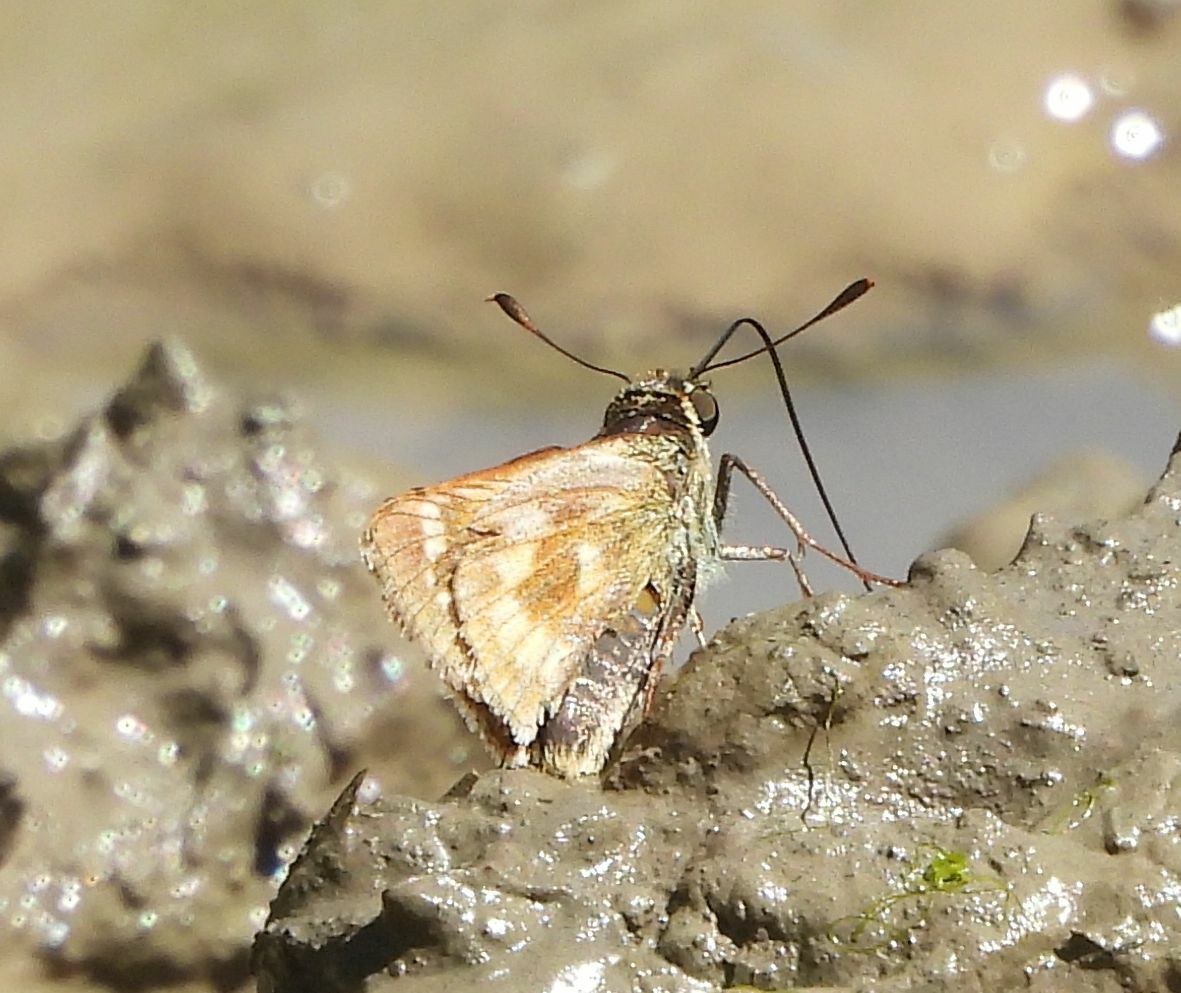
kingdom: Animalia
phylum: Arthropoda
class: Insecta
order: Lepidoptera
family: Hesperiidae
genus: Polites
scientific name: Polites mystic
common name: Long dash
